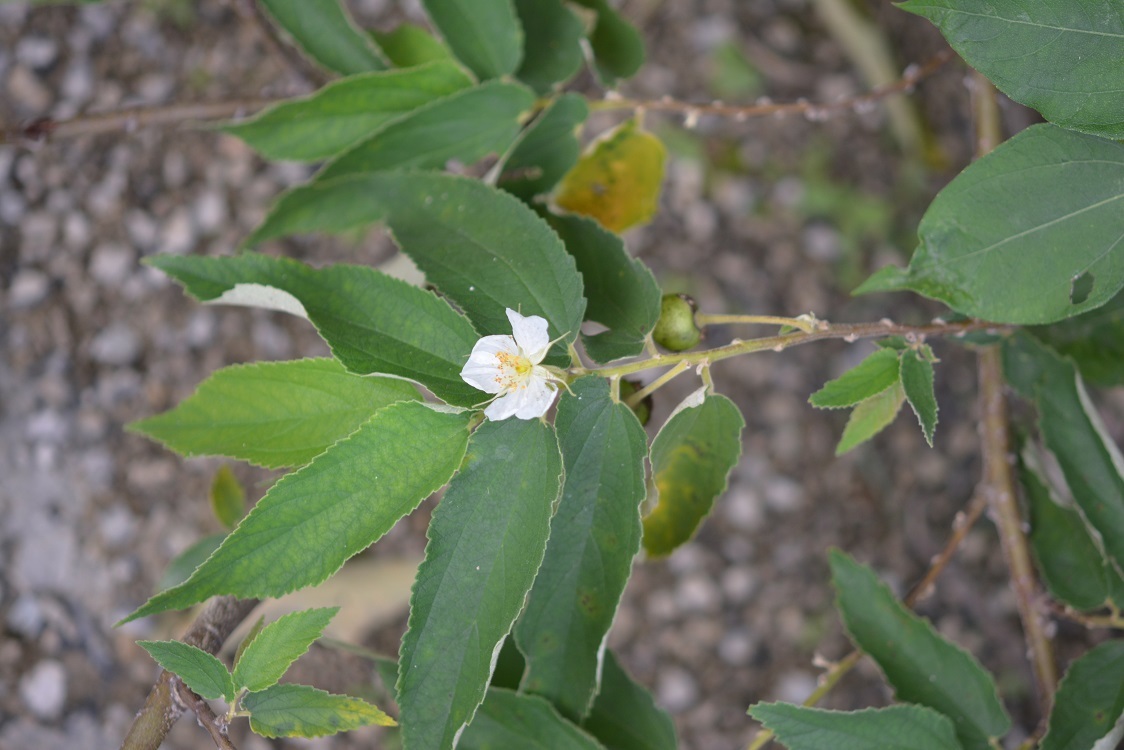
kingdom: Plantae
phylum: Tracheophyta
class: Magnoliopsida
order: Malvales
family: Muntingiaceae
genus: Muntingia
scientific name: Muntingia calabura
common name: Strawberrytree
